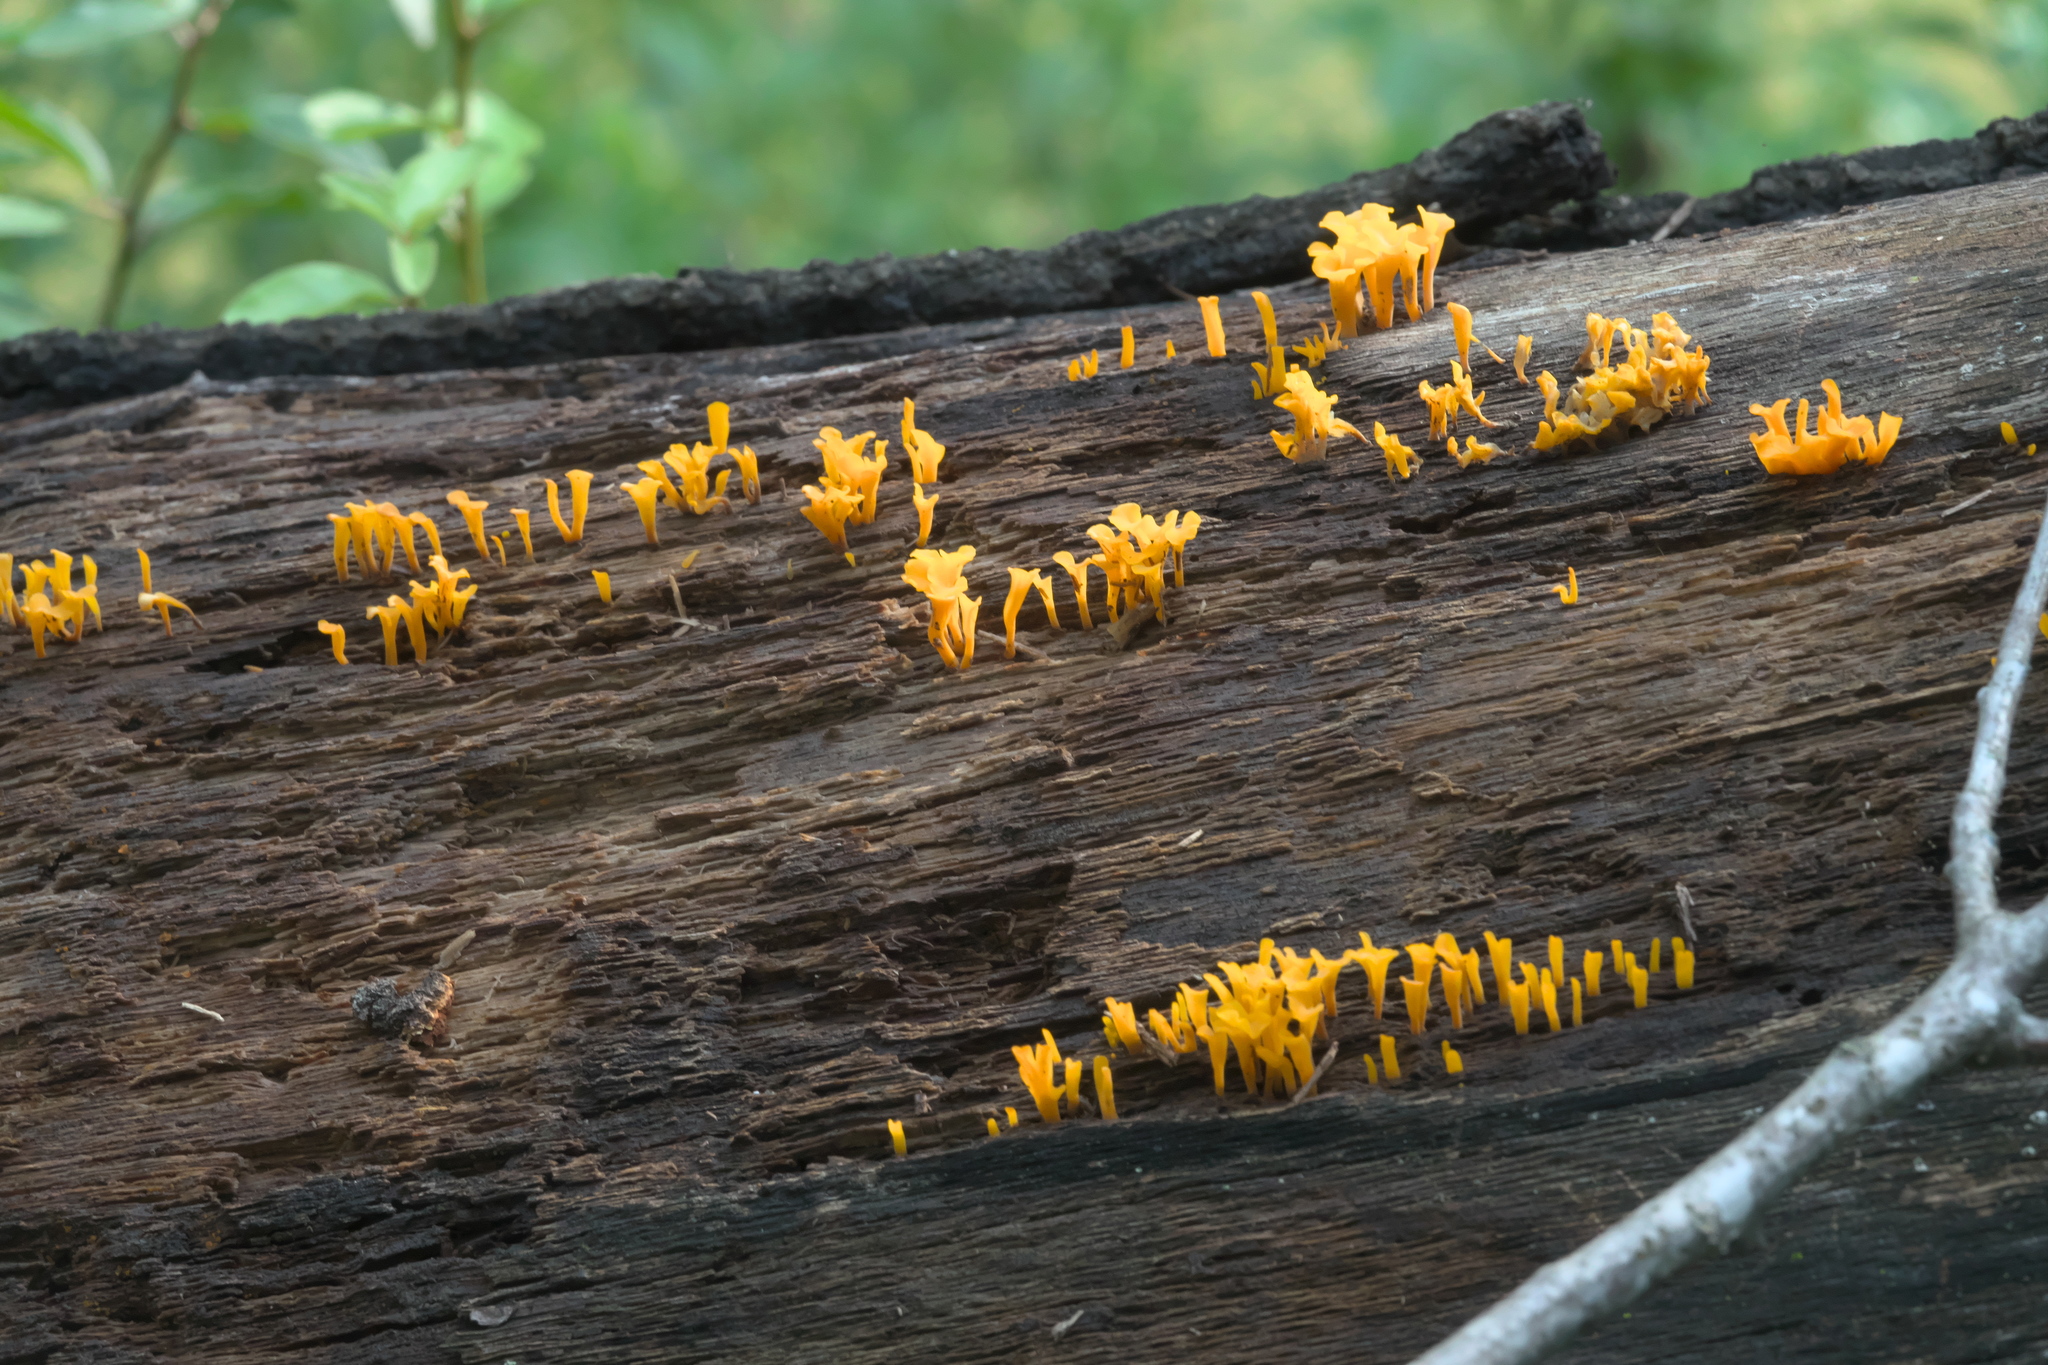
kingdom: Fungi
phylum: Basidiomycota
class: Dacrymycetes
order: Dacrymycetales
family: Dacrymycetaceae
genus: Dacrymyces
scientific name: Dacrymyces spathularius
